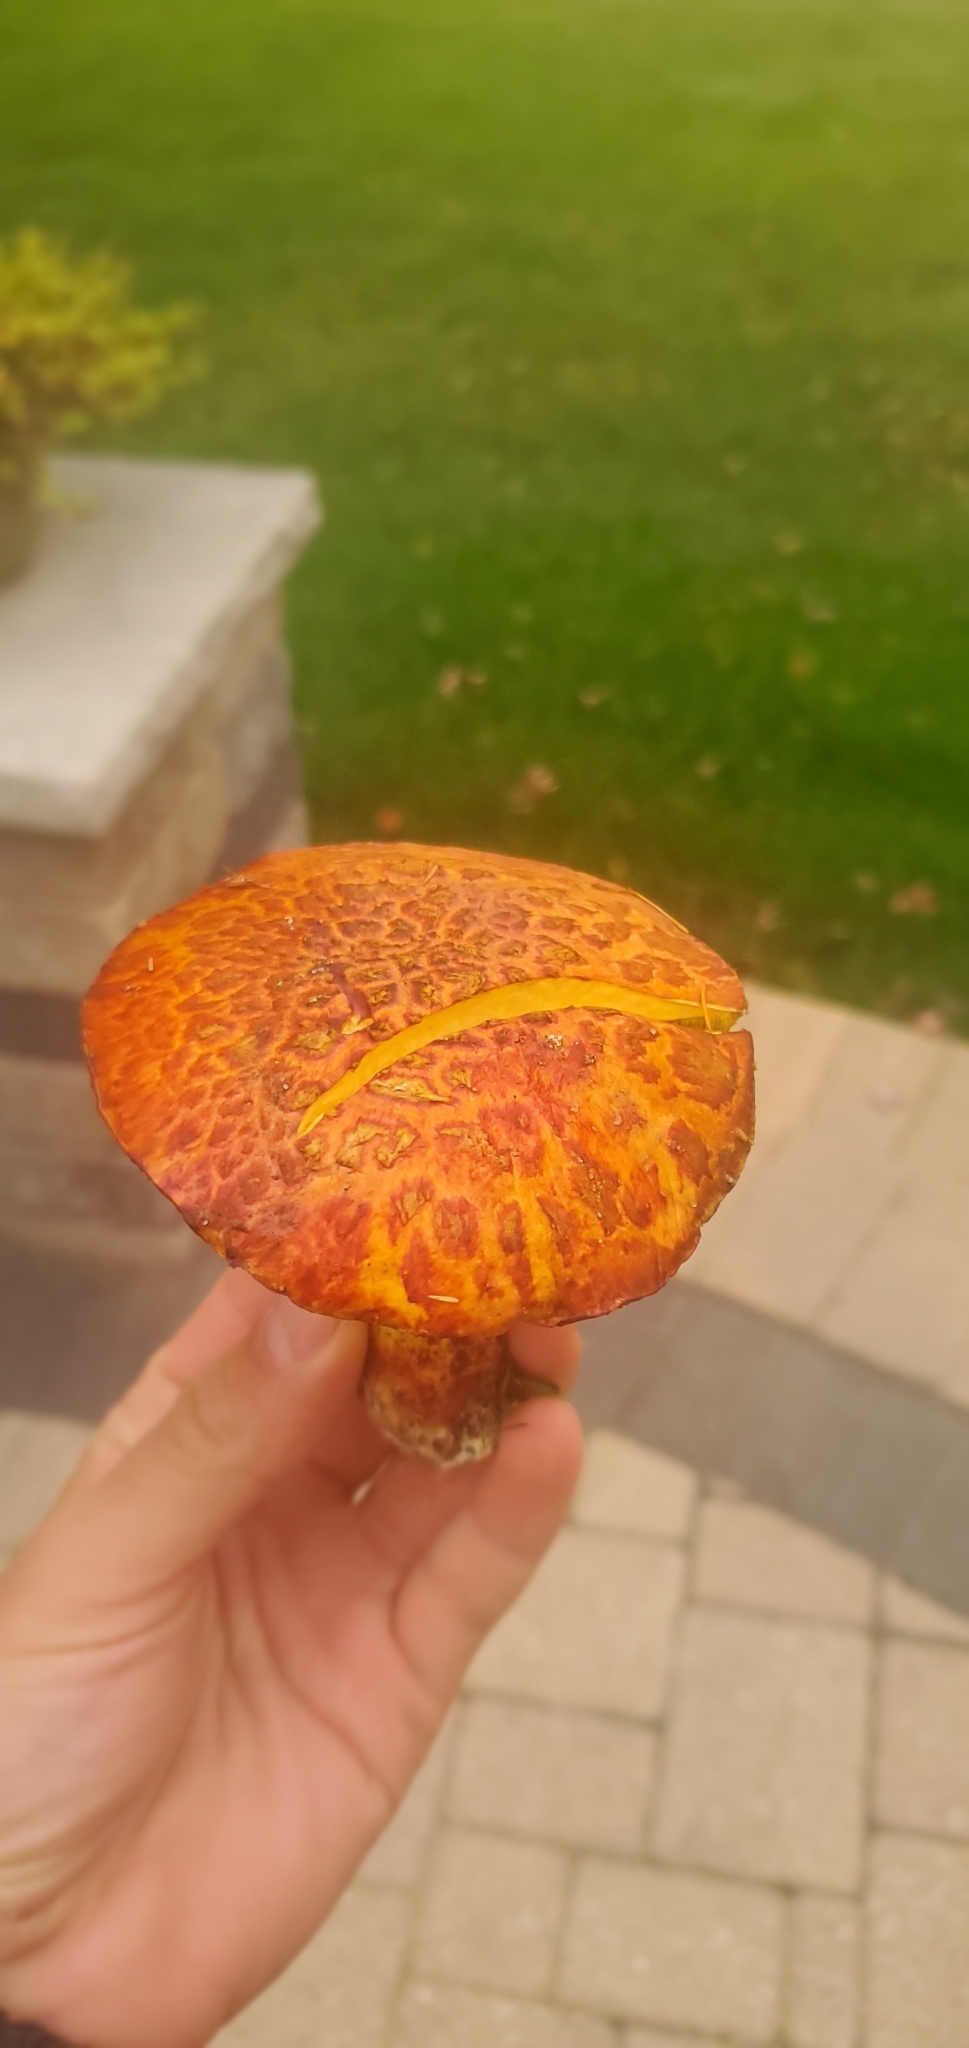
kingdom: Fungi
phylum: Basidiomycota
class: Agaricomycetes
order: Boletales
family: Suillaceae
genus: Boletinus
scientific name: Boletinus spectabilis
